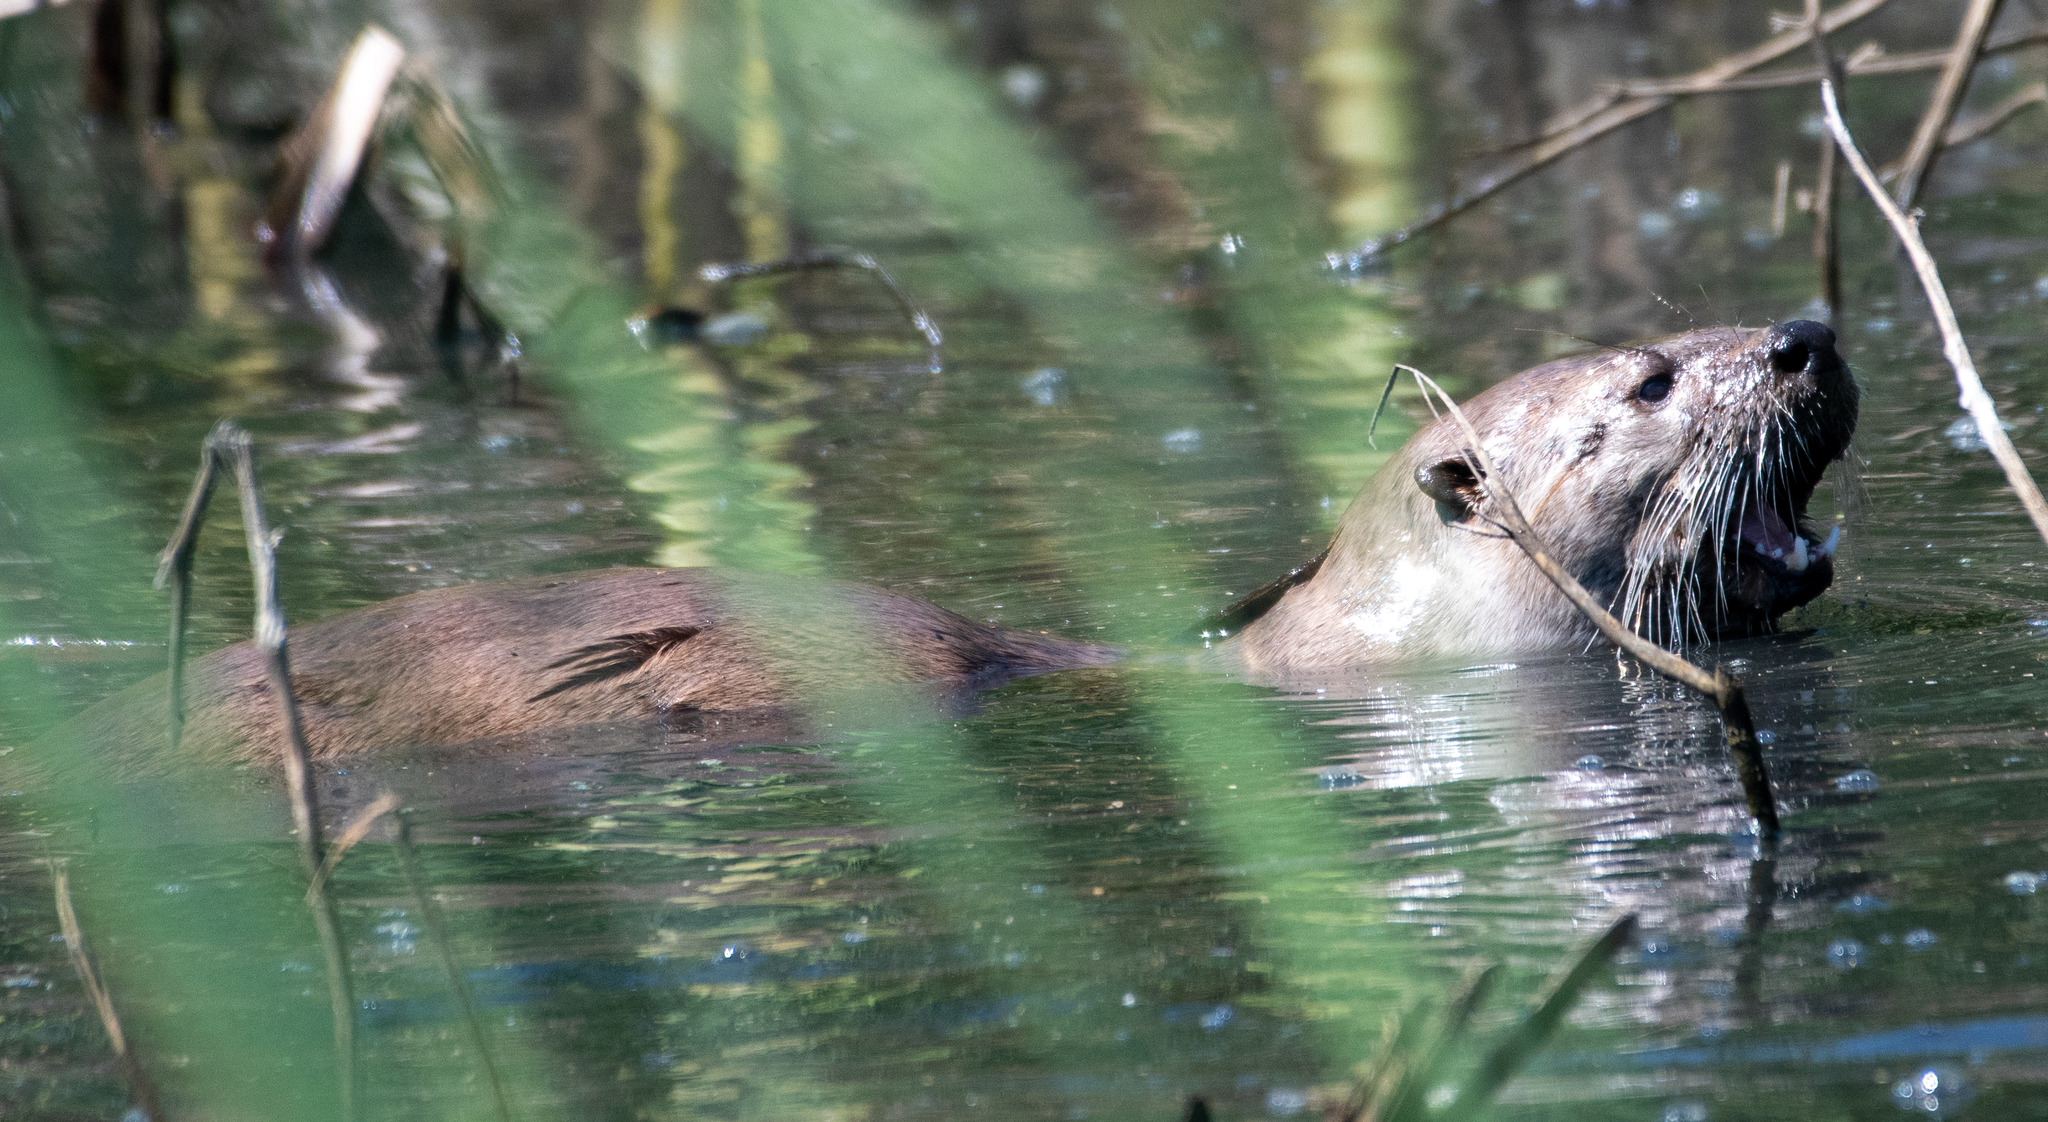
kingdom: Animalia
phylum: Chordata
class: Mammalia
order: Carnivora
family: Mustelidae
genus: Lontra
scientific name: Lontra canadensis
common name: North american river otter
